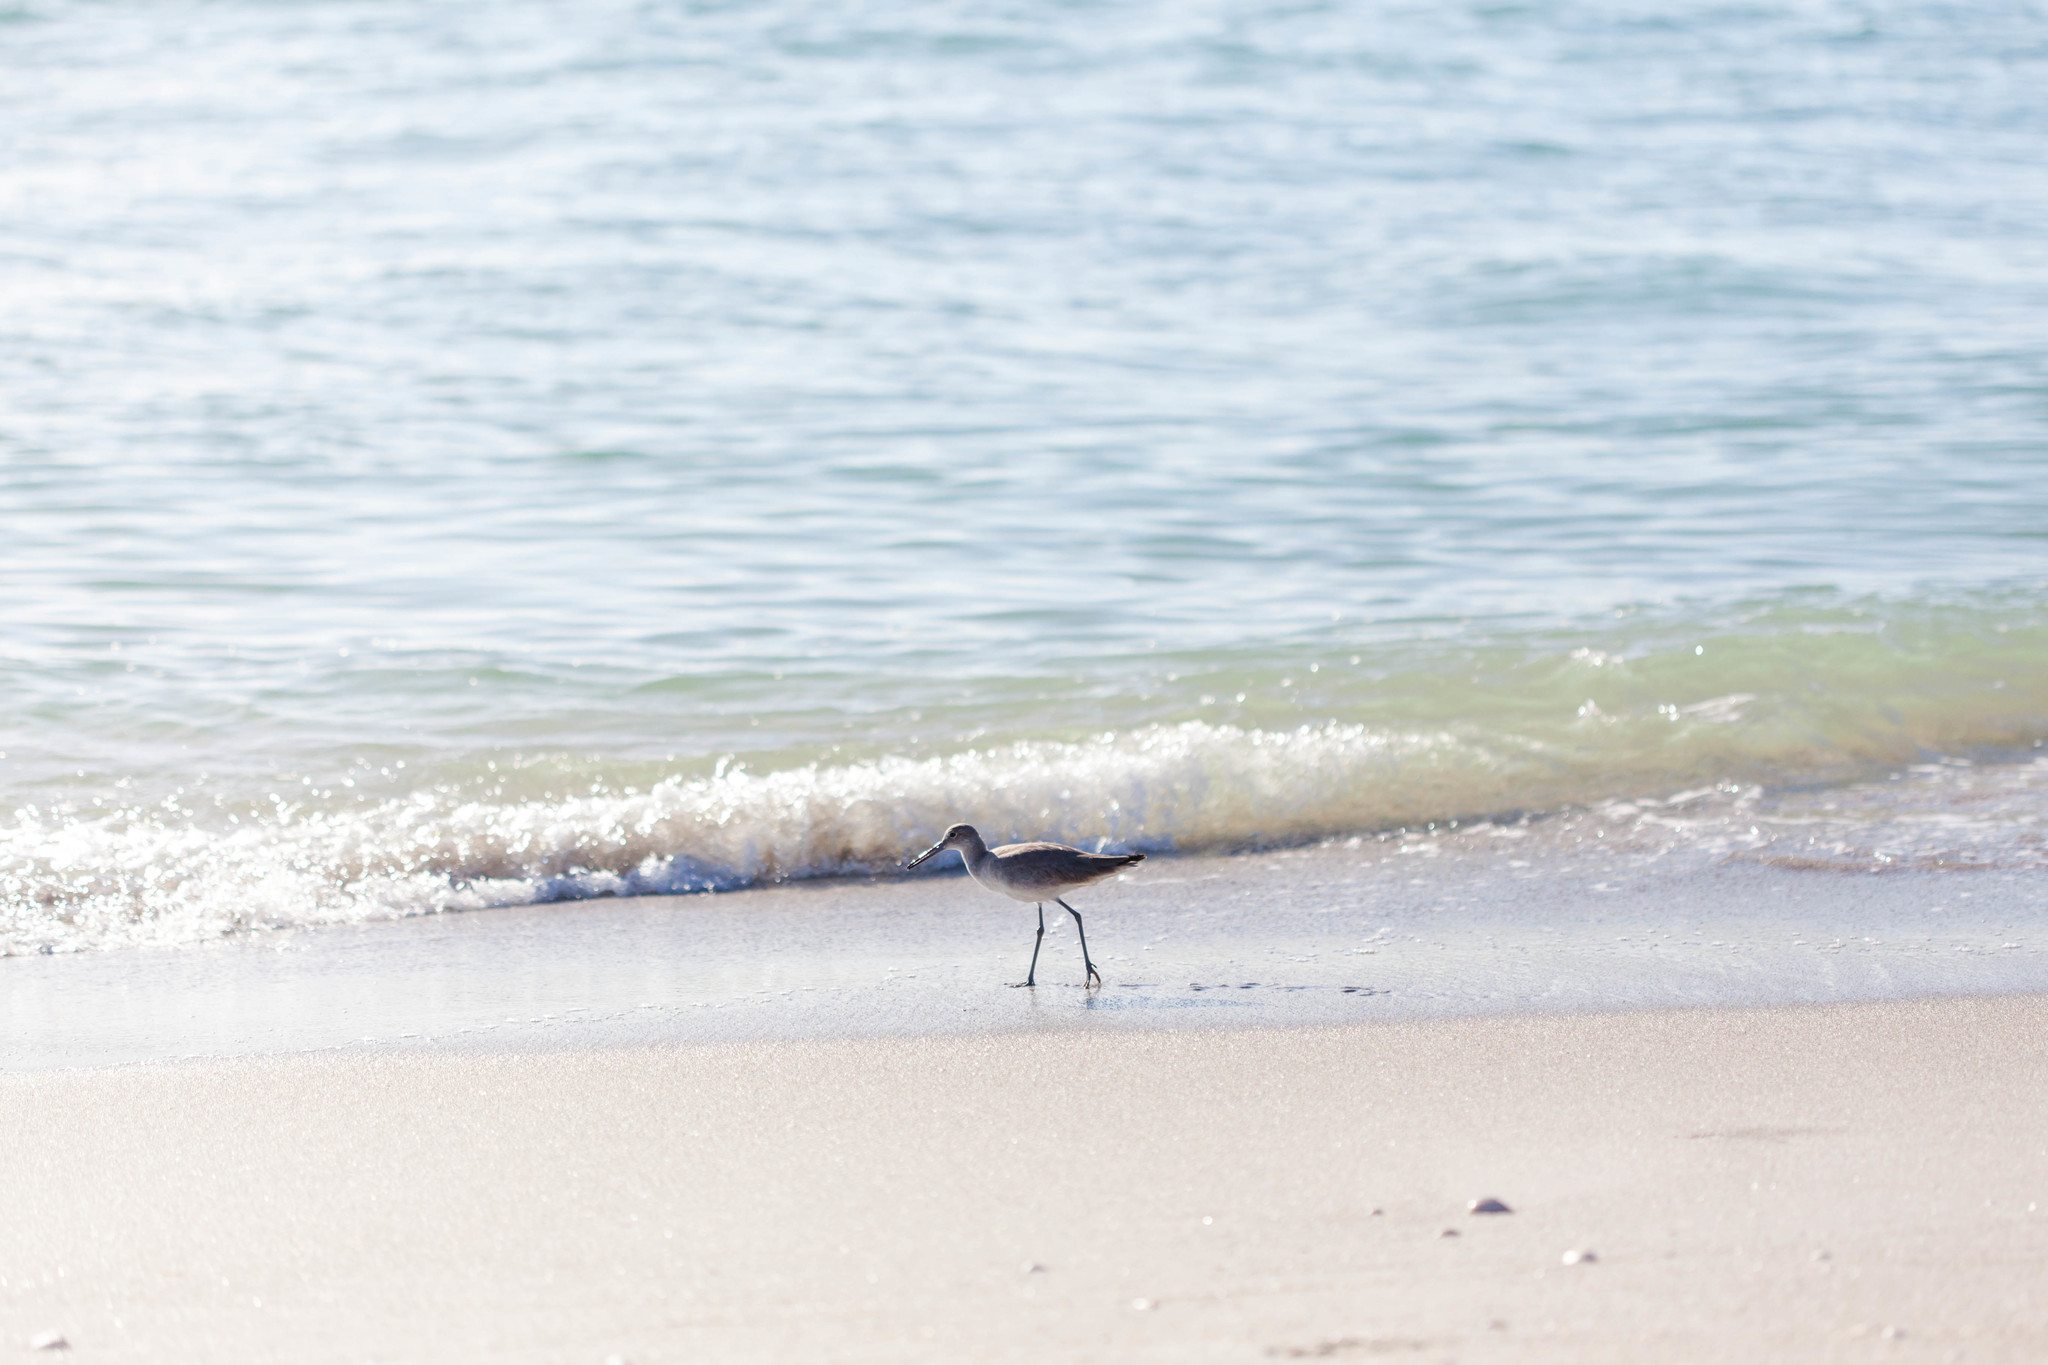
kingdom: Animalia
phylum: Chordata
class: Aves
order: Charadriiformes
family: Scolopacidae
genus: Tringa
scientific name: Tringa semipalmata
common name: Willet
